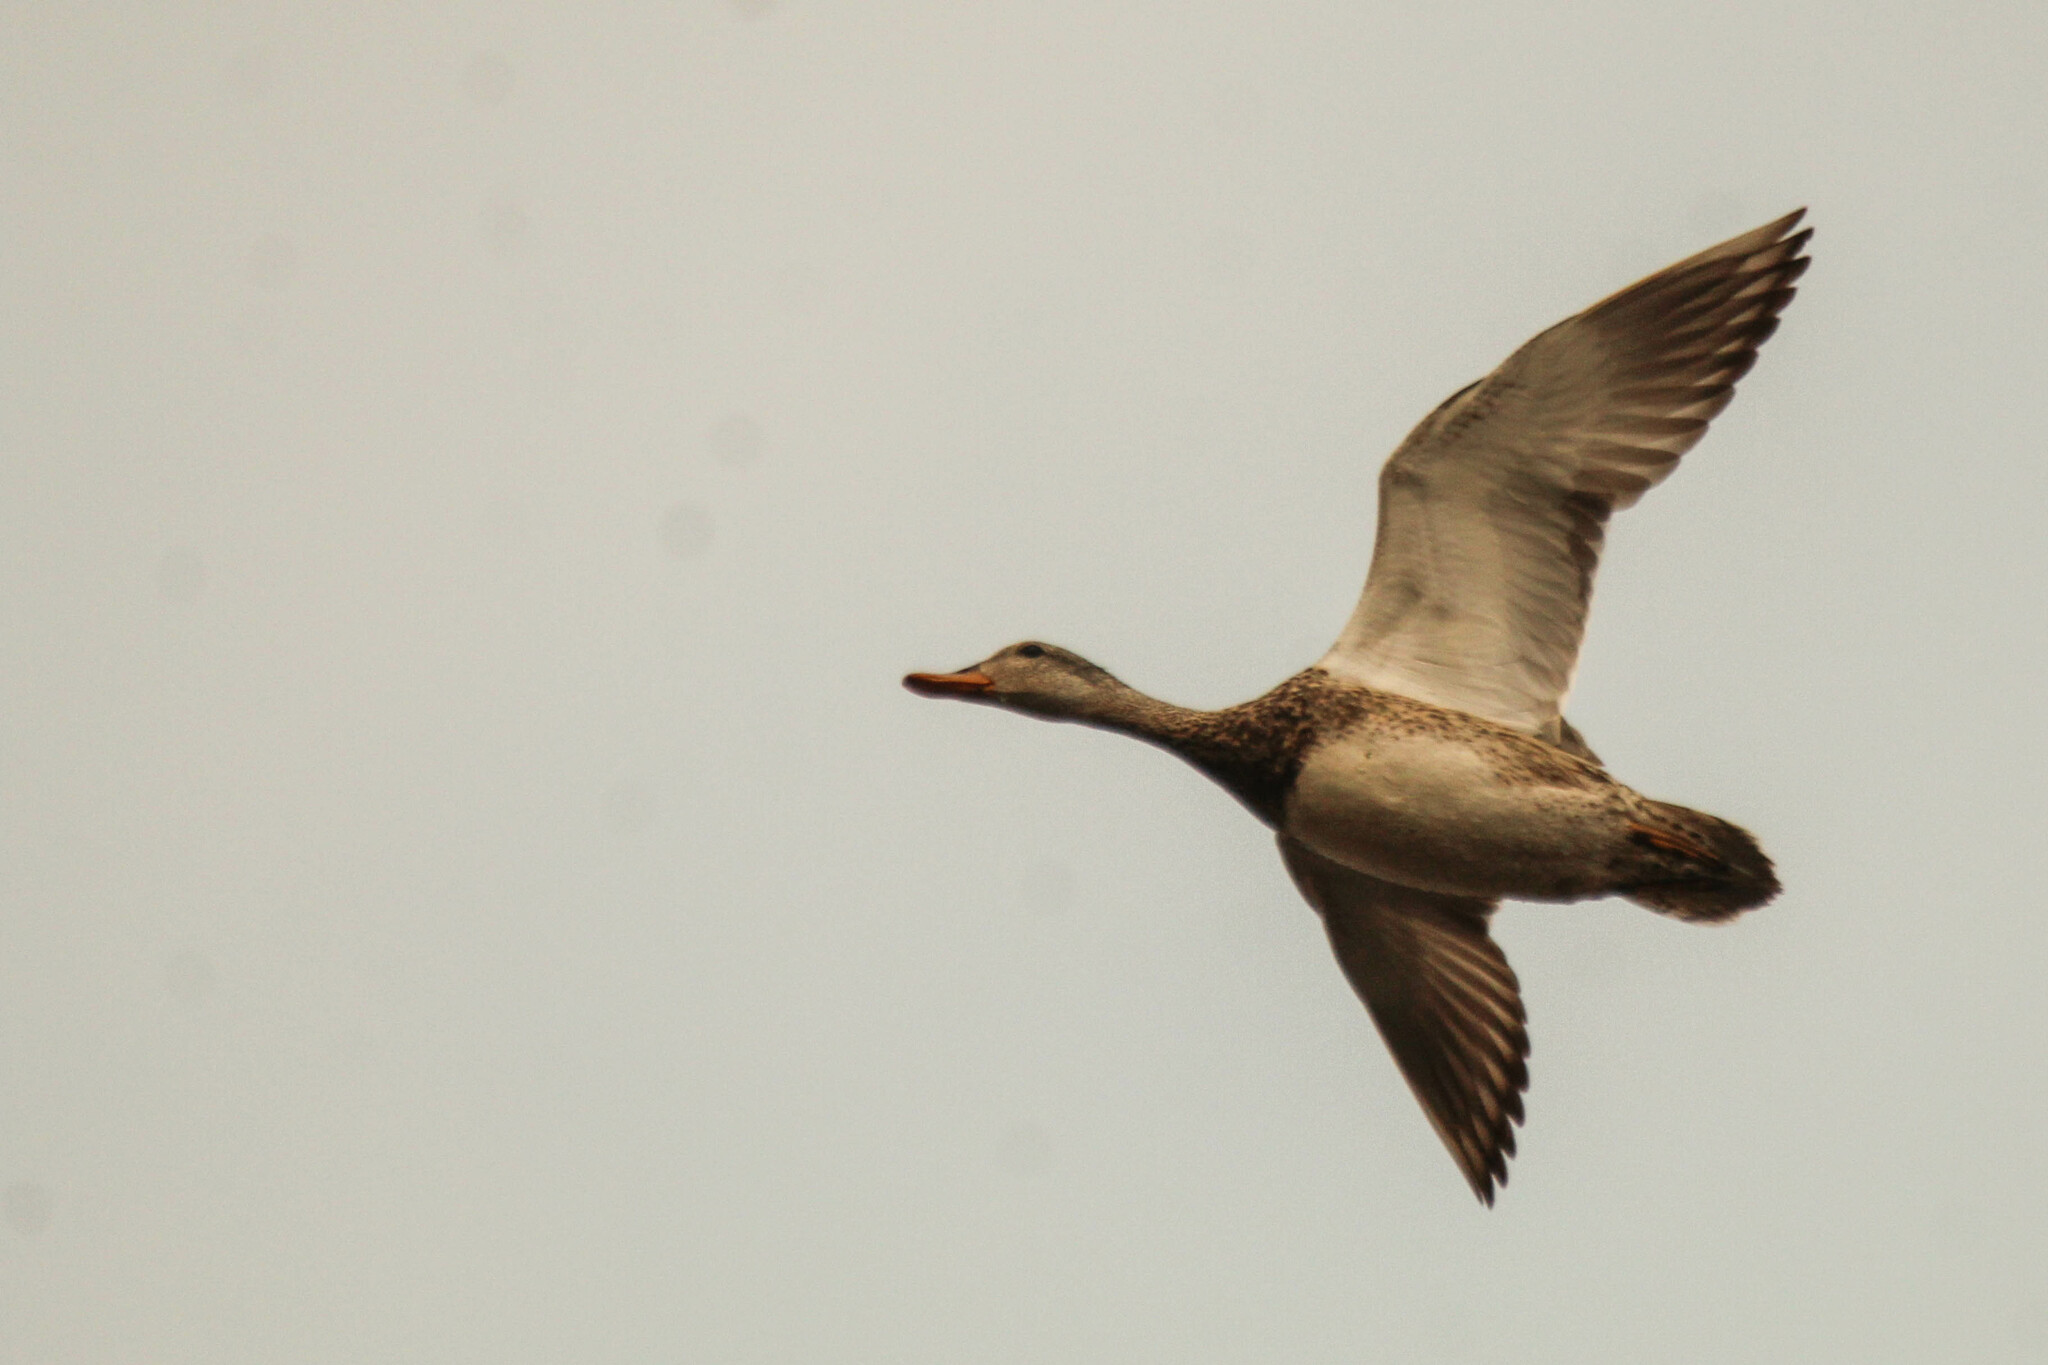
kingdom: Animalia
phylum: Chordata
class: Aves
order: Anseriformes
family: Anatidae
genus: Mareca
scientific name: Mareca strepera
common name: Gadwall
